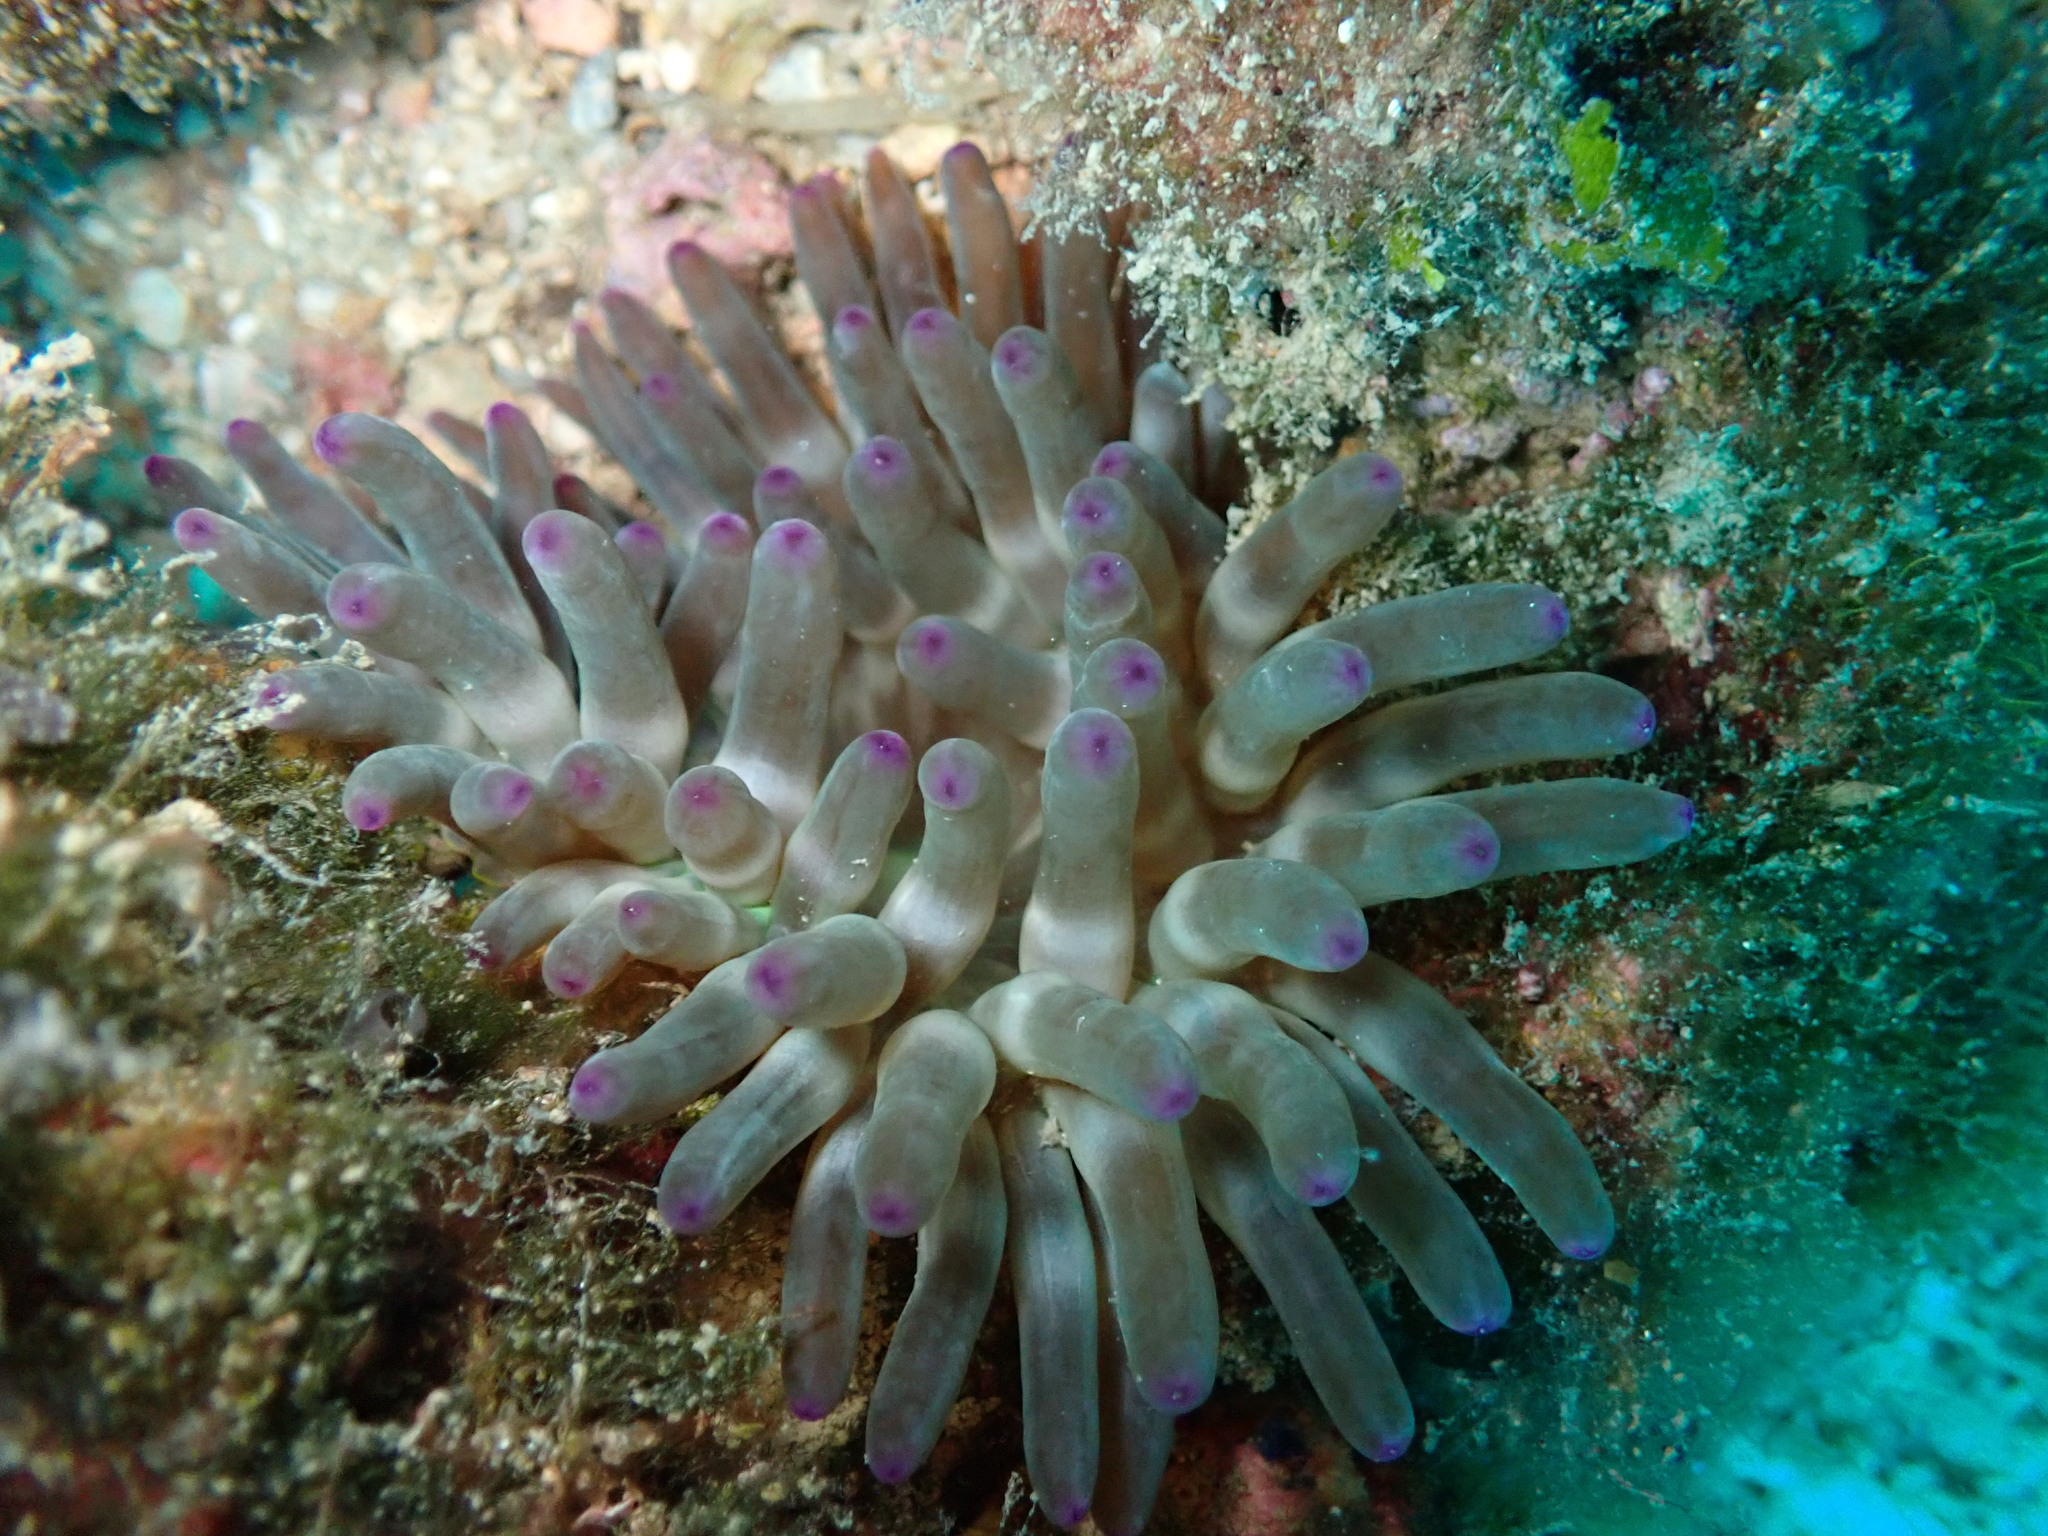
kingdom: Animalia
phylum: Cnidaria
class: Anthozoa
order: Actiniaria
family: Actiniidae
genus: Cribrinopsis
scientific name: Cribrinopsis crassa
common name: Fat anemone
